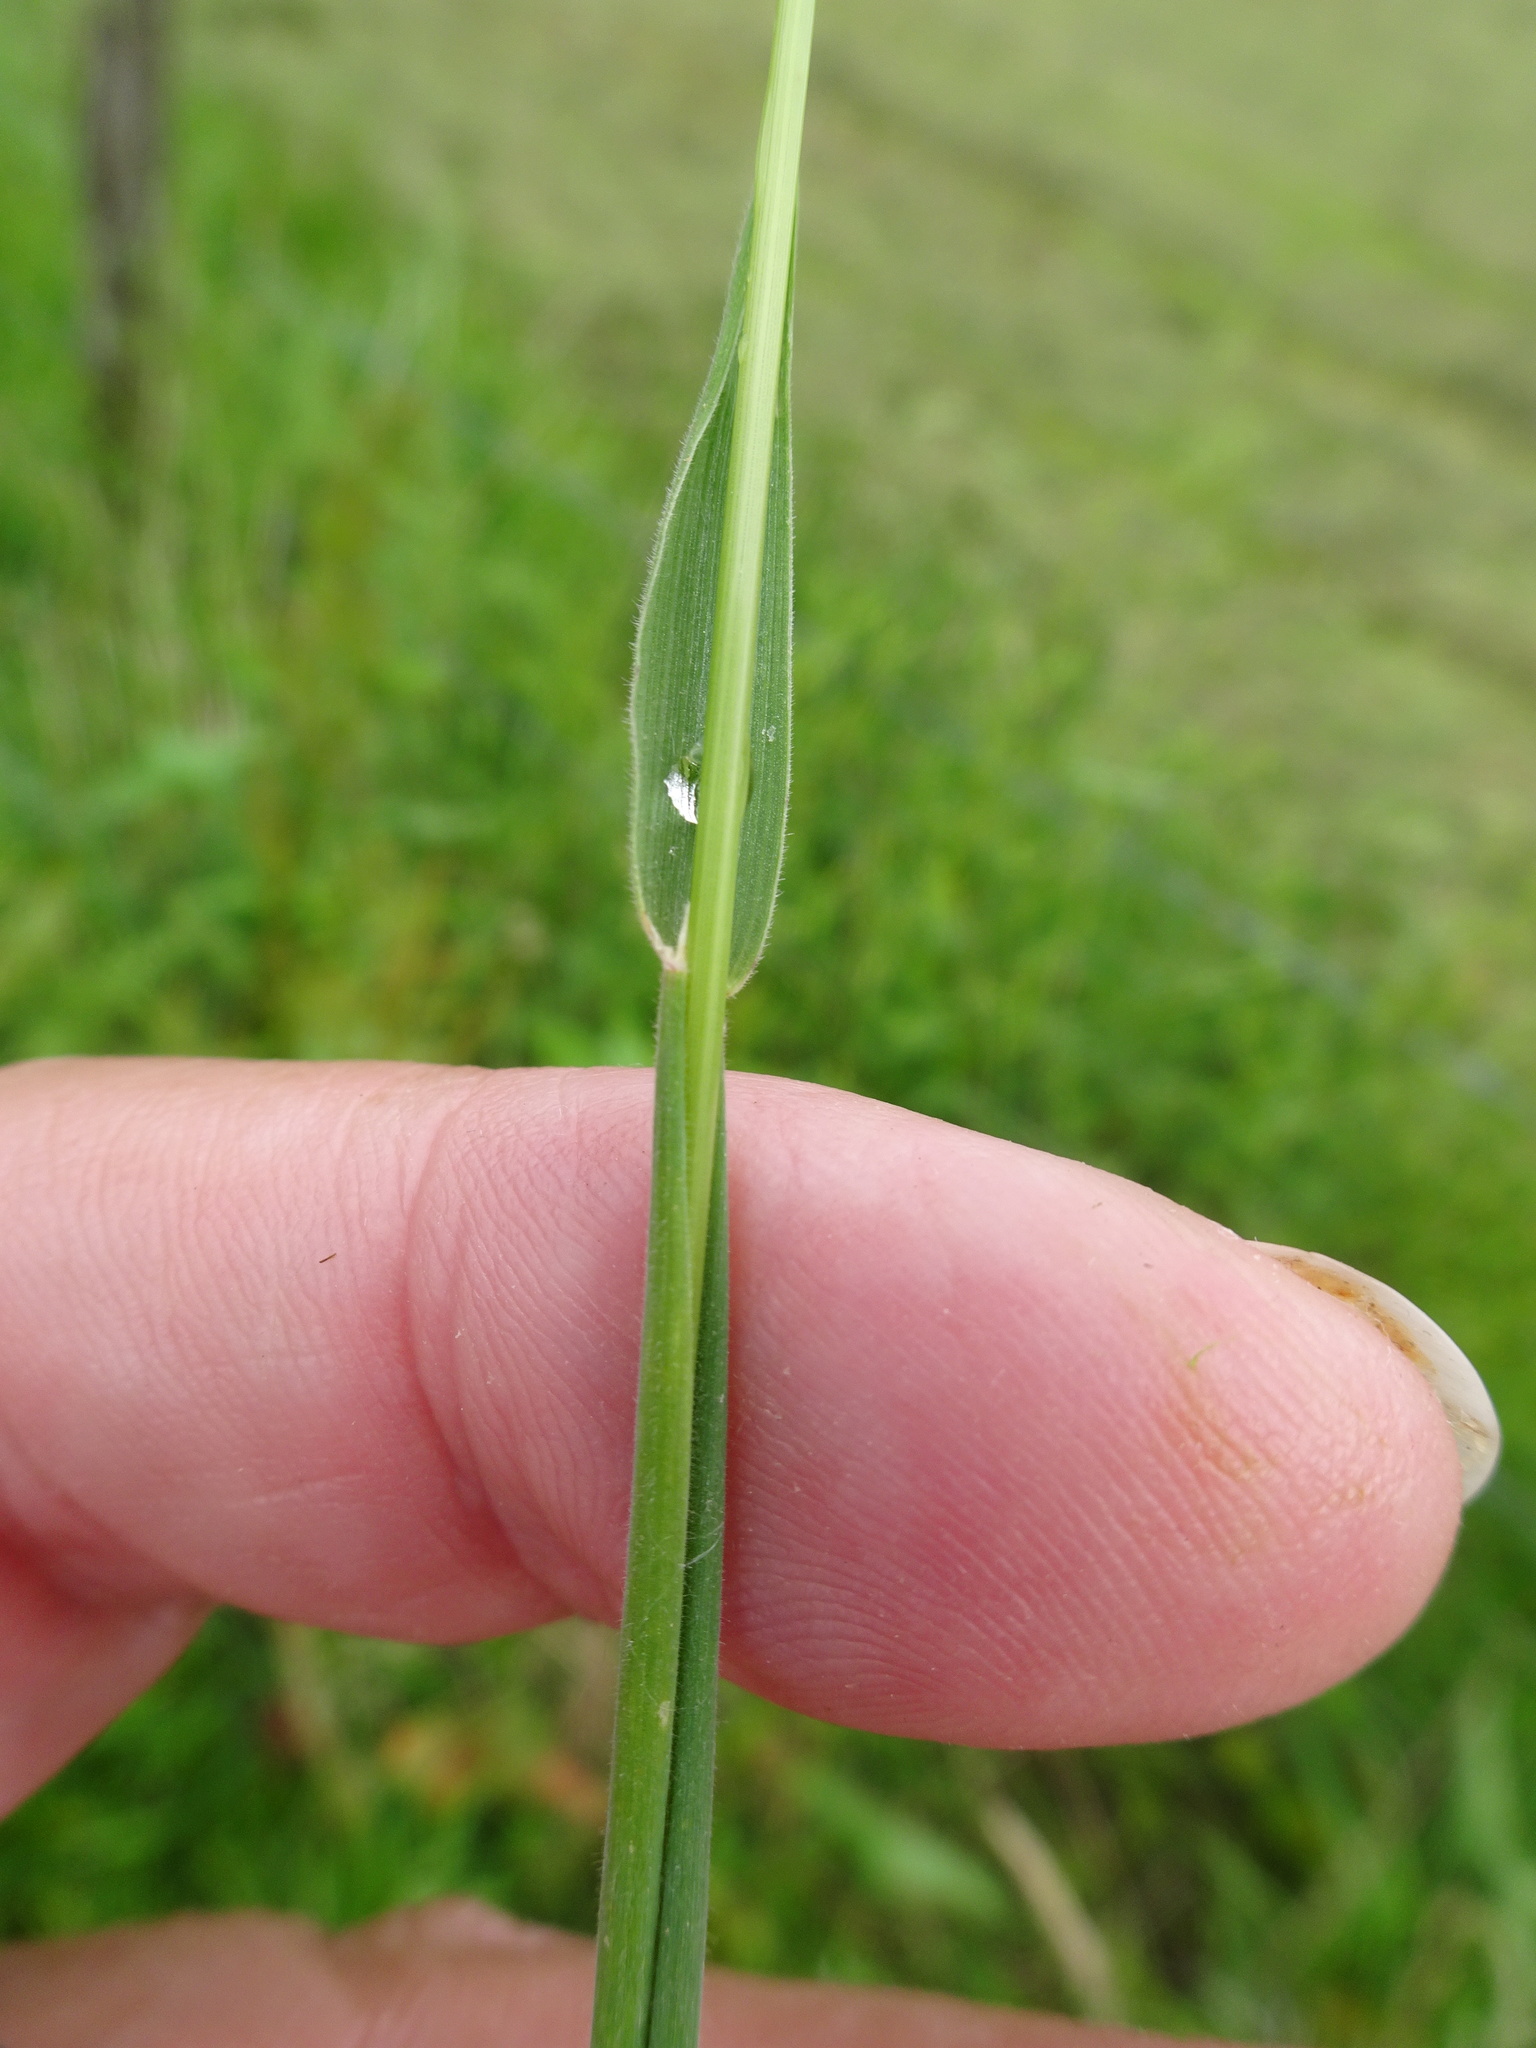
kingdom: Plantae
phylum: Tracheophyta
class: Liliopsida
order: Poales
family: Poaceae
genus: Holcus
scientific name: Holcus lanatus
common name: Yorkshire-fog
